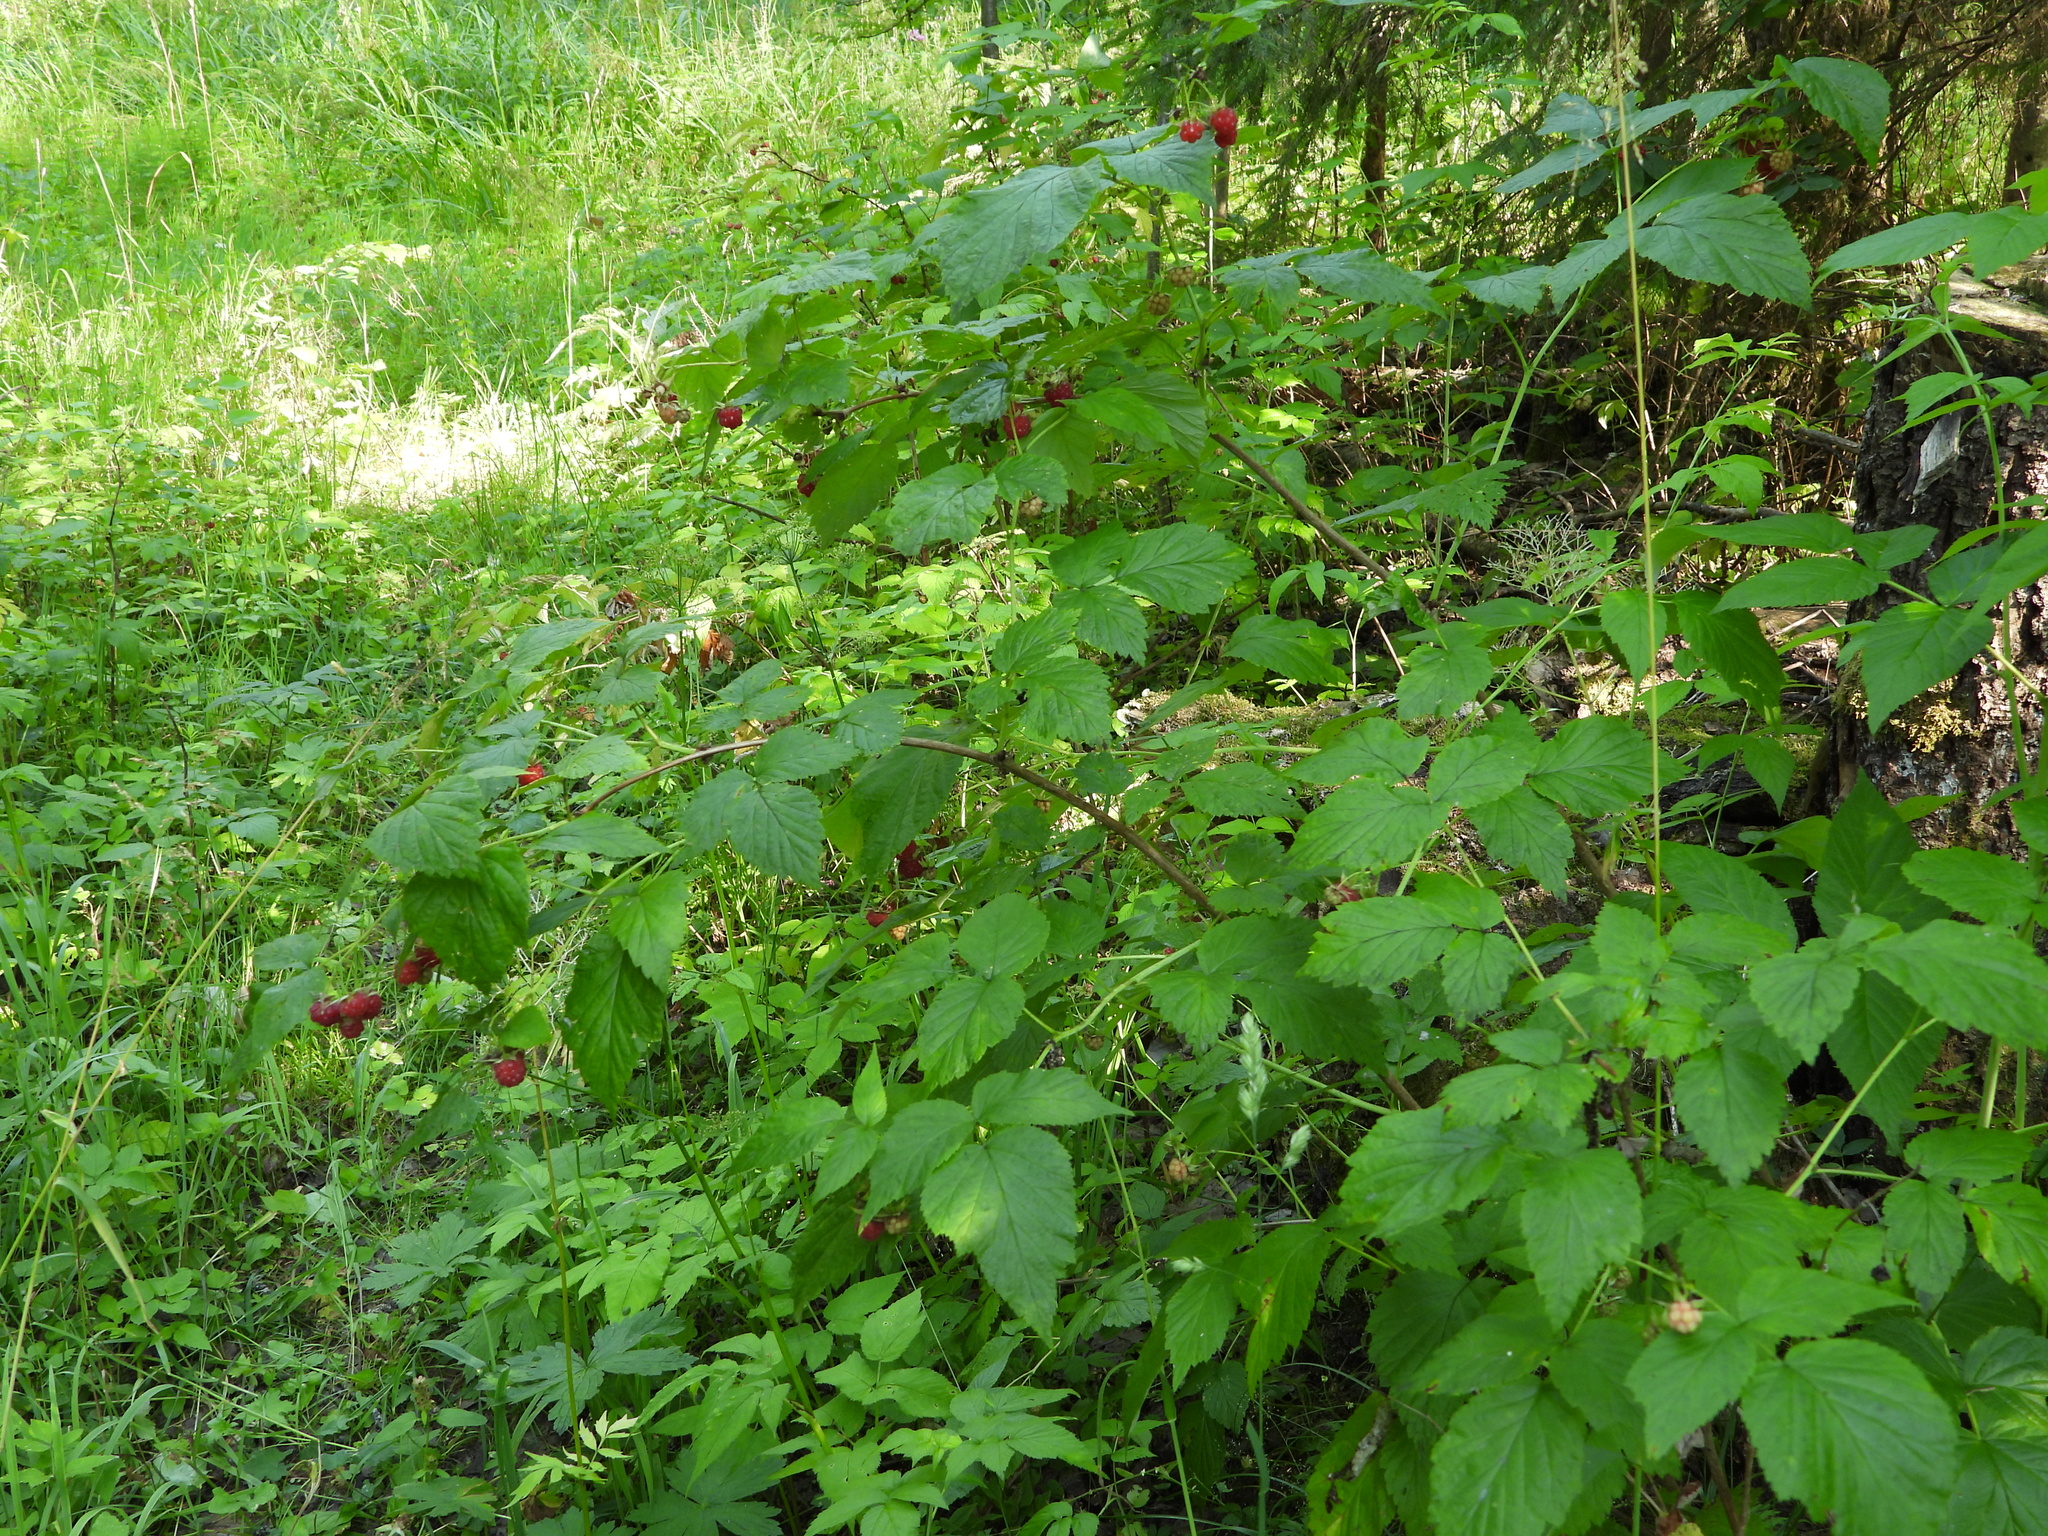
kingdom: Plantae
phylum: Tracheophyta
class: Magnoliopsida
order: Rosales
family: Rosaceae
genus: Rubus
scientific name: Rubus idaeus
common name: Raspberry
